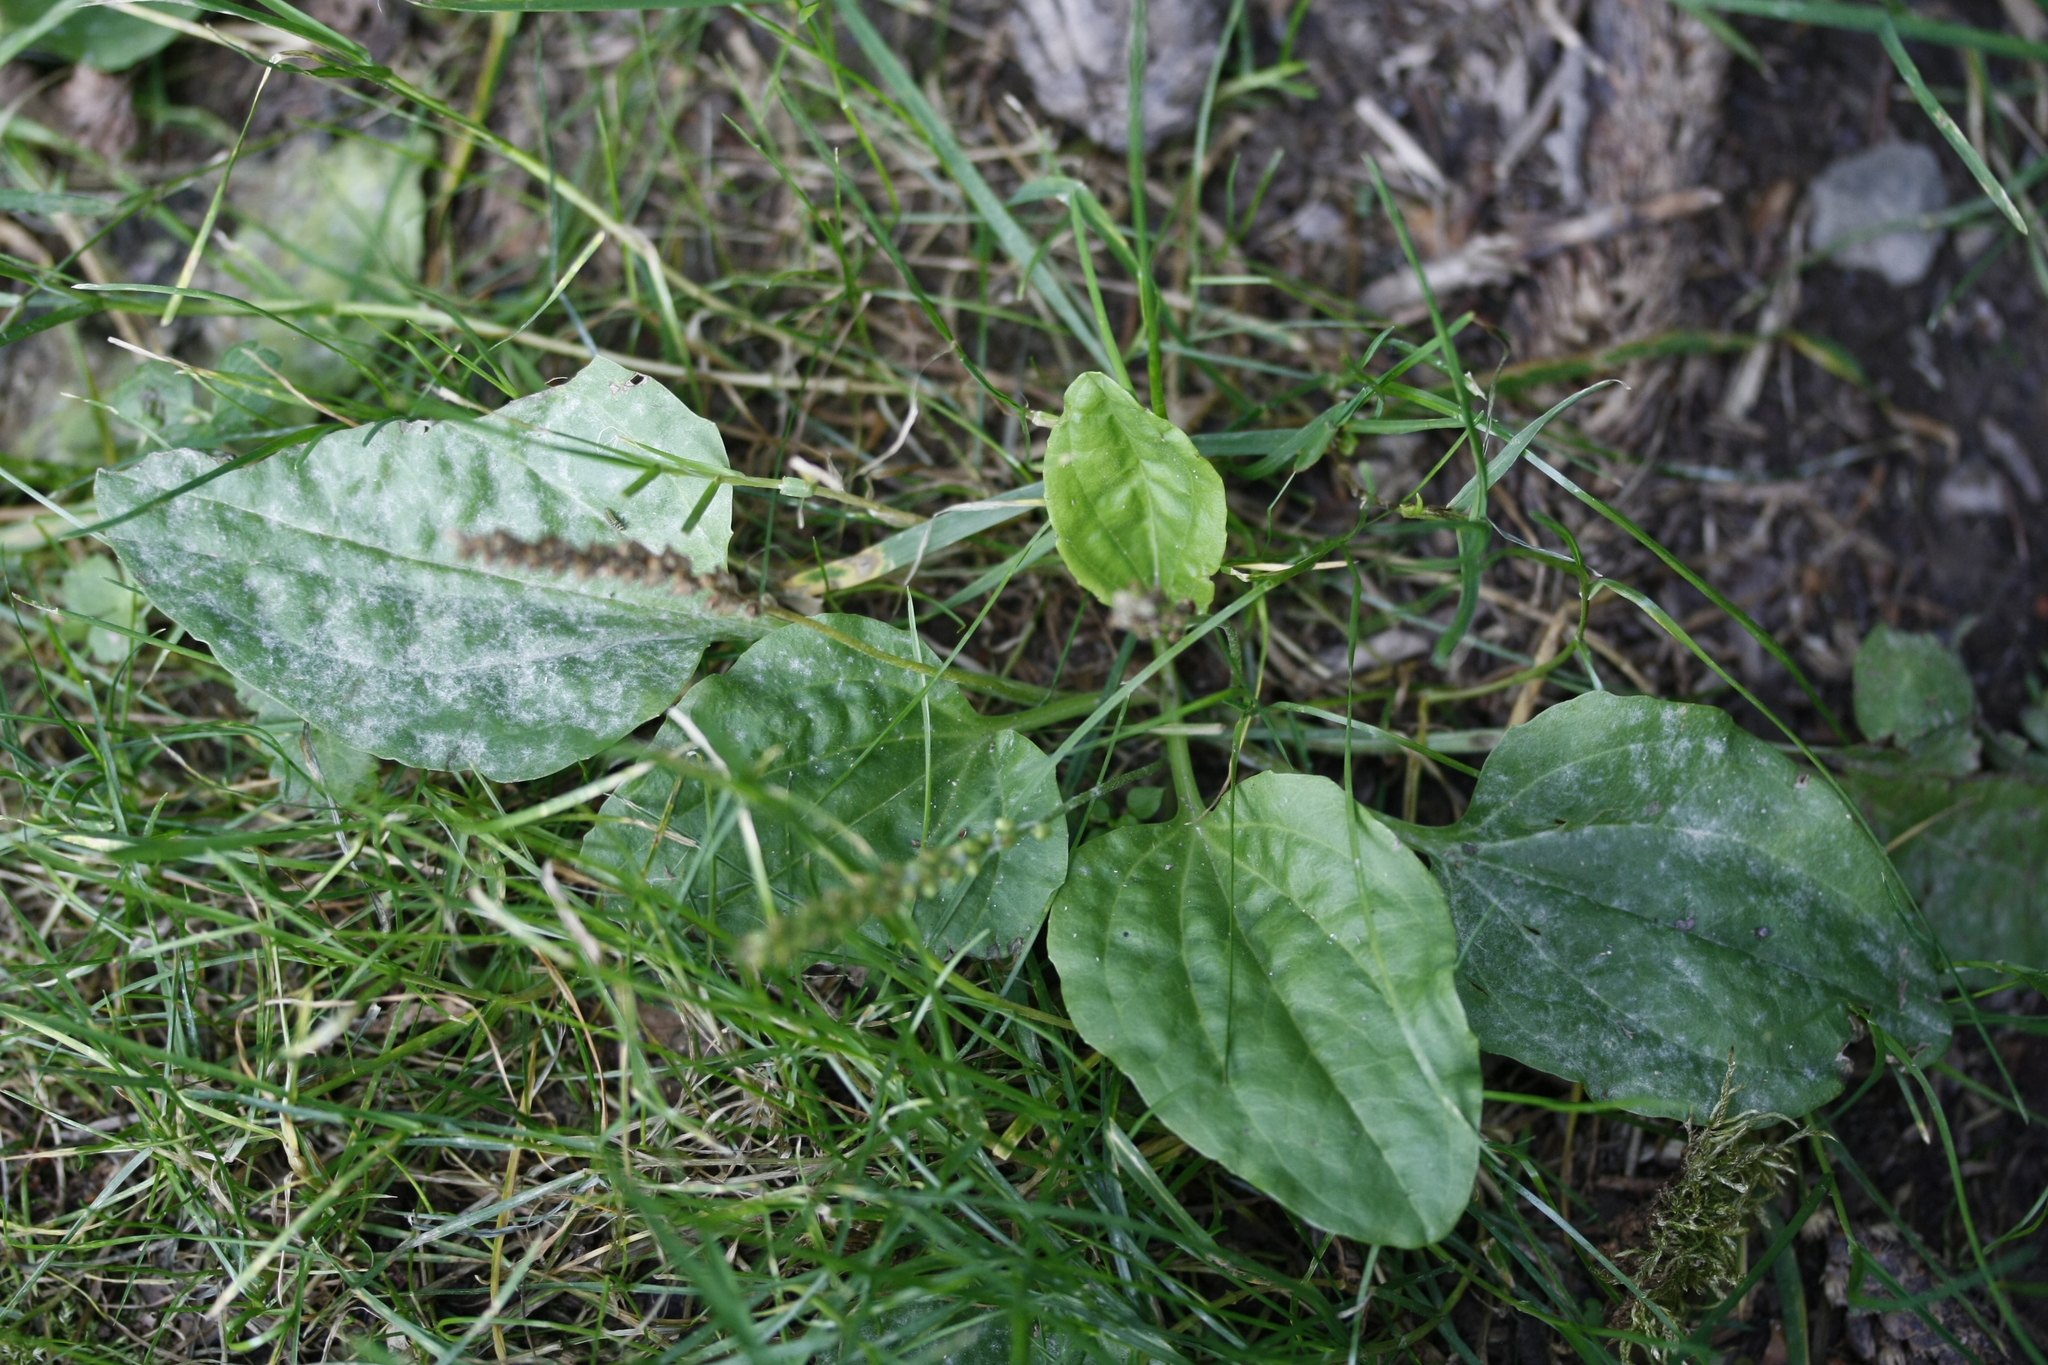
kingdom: Plantae
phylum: Tracheophyta
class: Magnoliopsida
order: Lamiales
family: Plantaginaceae
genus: Plantago
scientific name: Plantago major
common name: Common plantain
